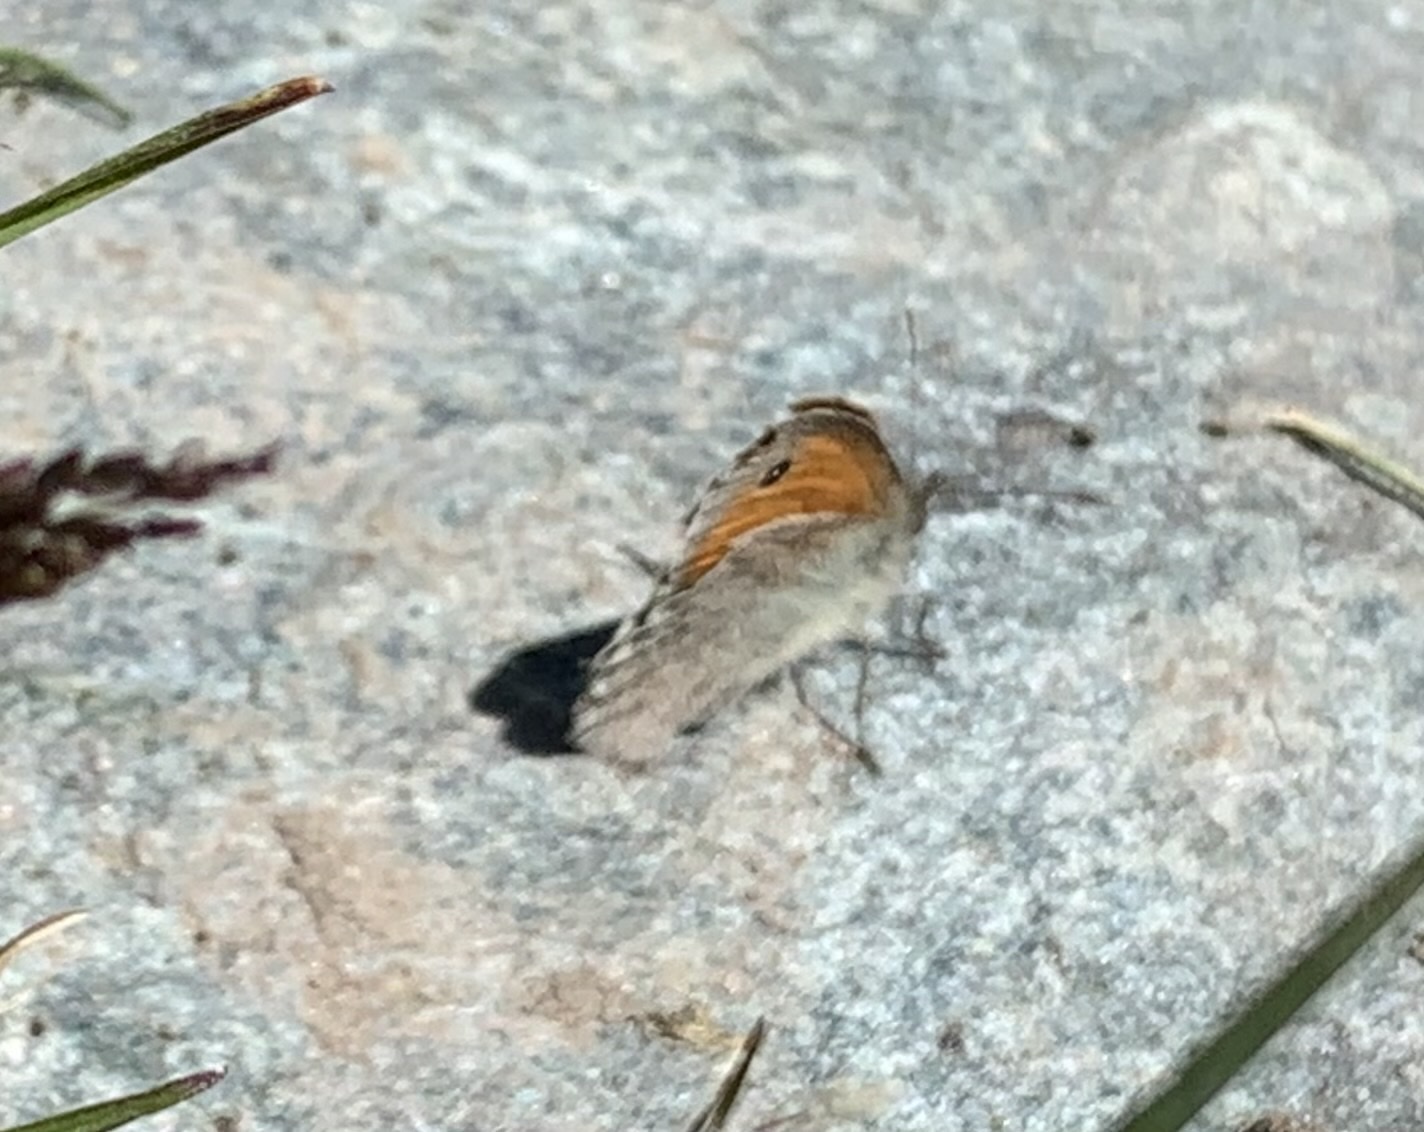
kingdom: Animalia
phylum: Arthropoda
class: Insecta
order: Lepidoptera
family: Nymphalidae
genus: Coenonympha
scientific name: Coenonympha pamphilus
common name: Small heath
